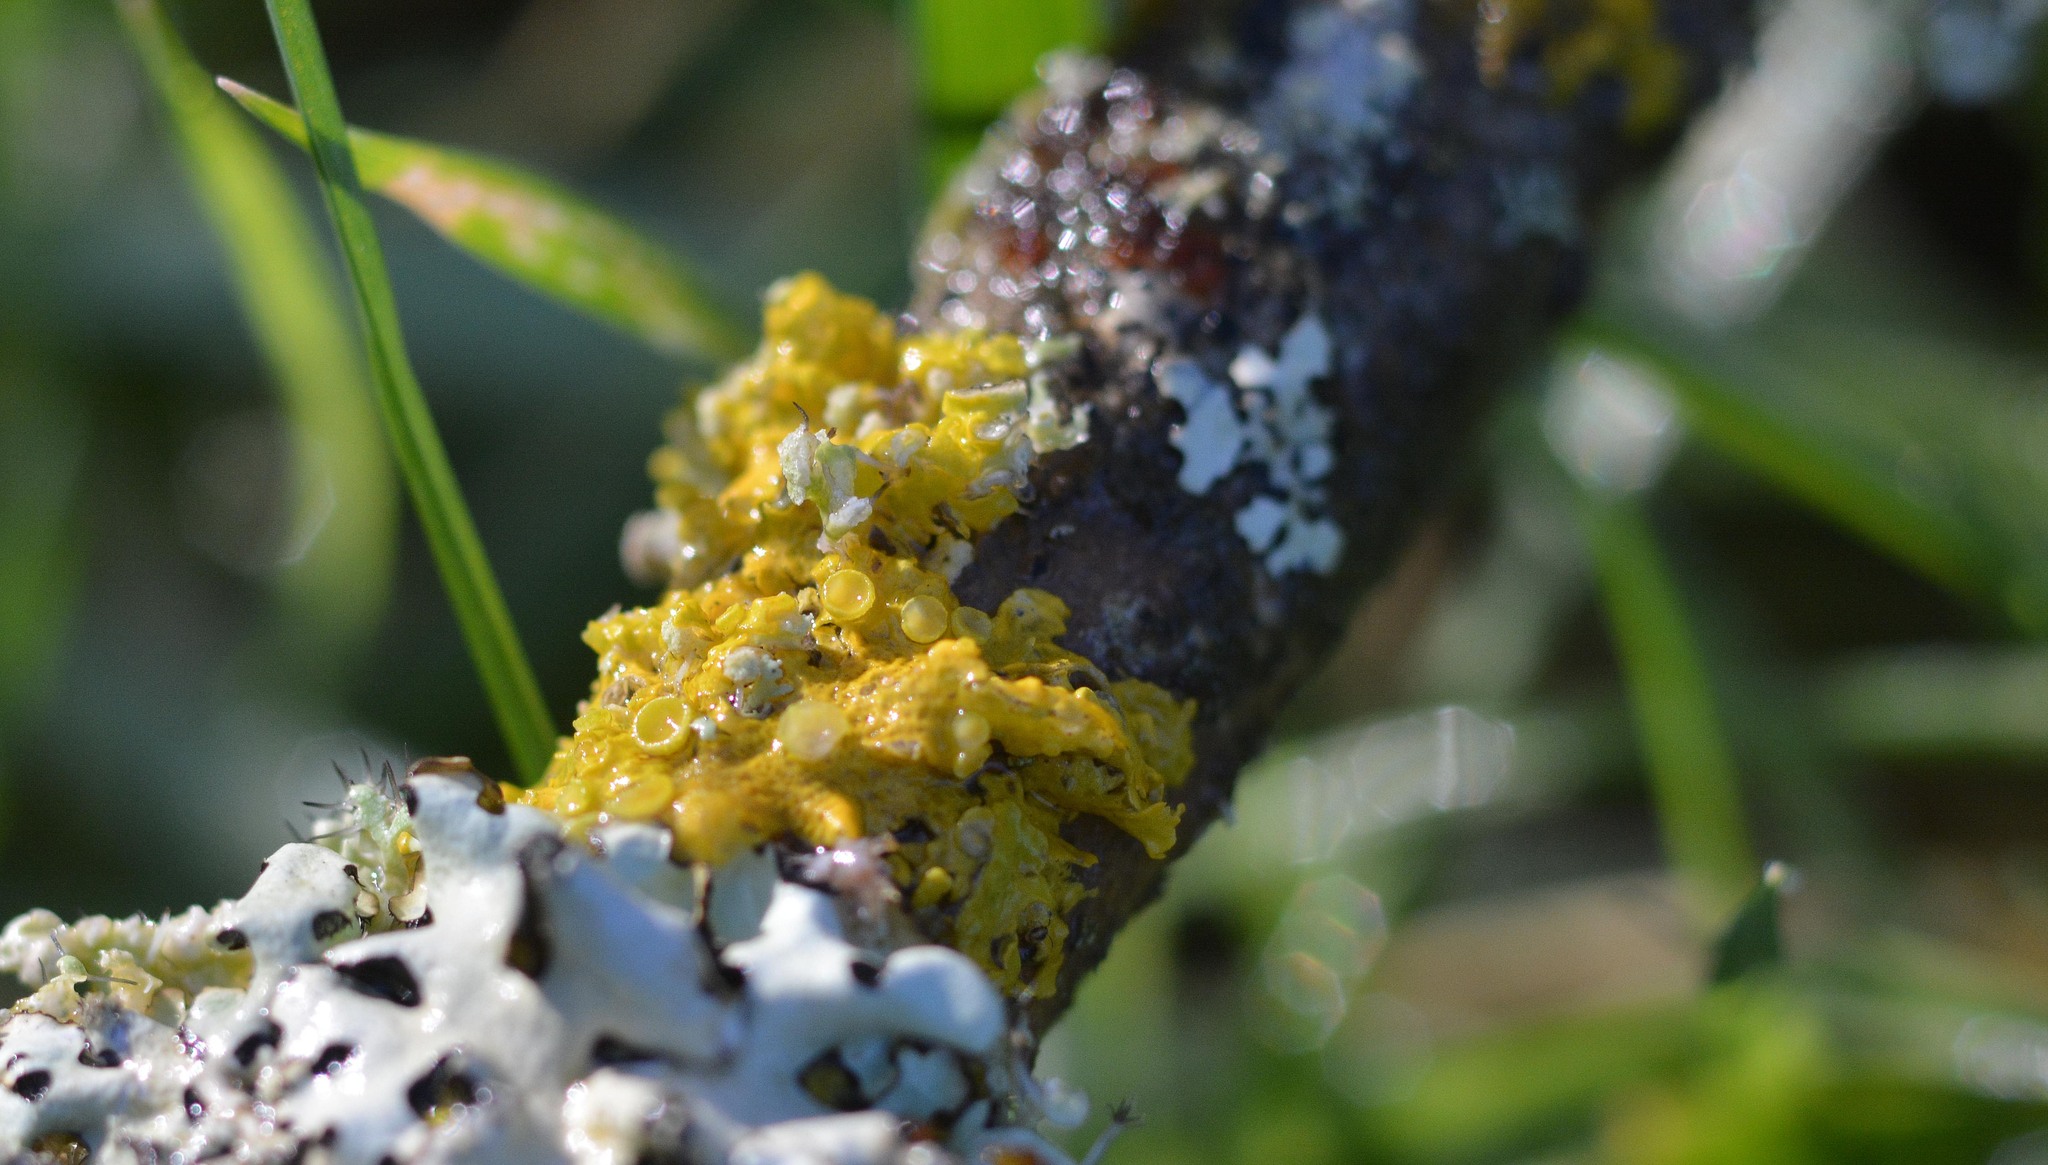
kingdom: Fungi
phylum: Ascomycota
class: Lecanoromycetes
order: Teloschistales
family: Teloschistaceae
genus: Xanthoria
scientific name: Xanthoria parietina
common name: Common orange lichen
